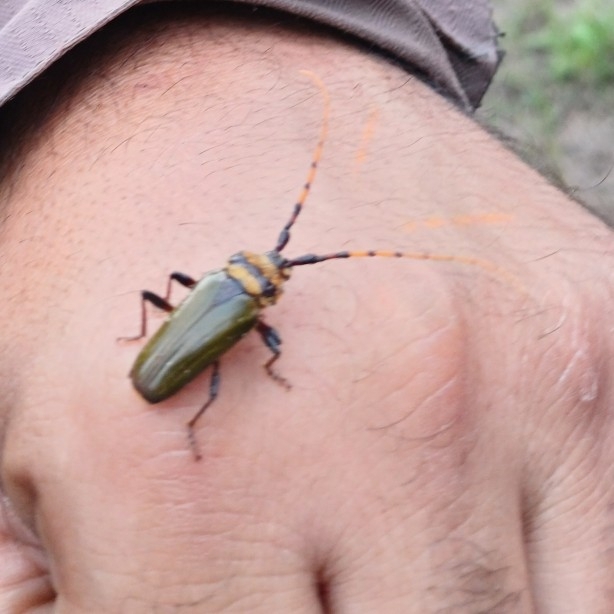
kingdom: Animalia
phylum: Arthropoda
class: Insecta
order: Coleoptera
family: Cerambycidae
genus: Retrachydes
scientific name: Retrachydes thoracicus
